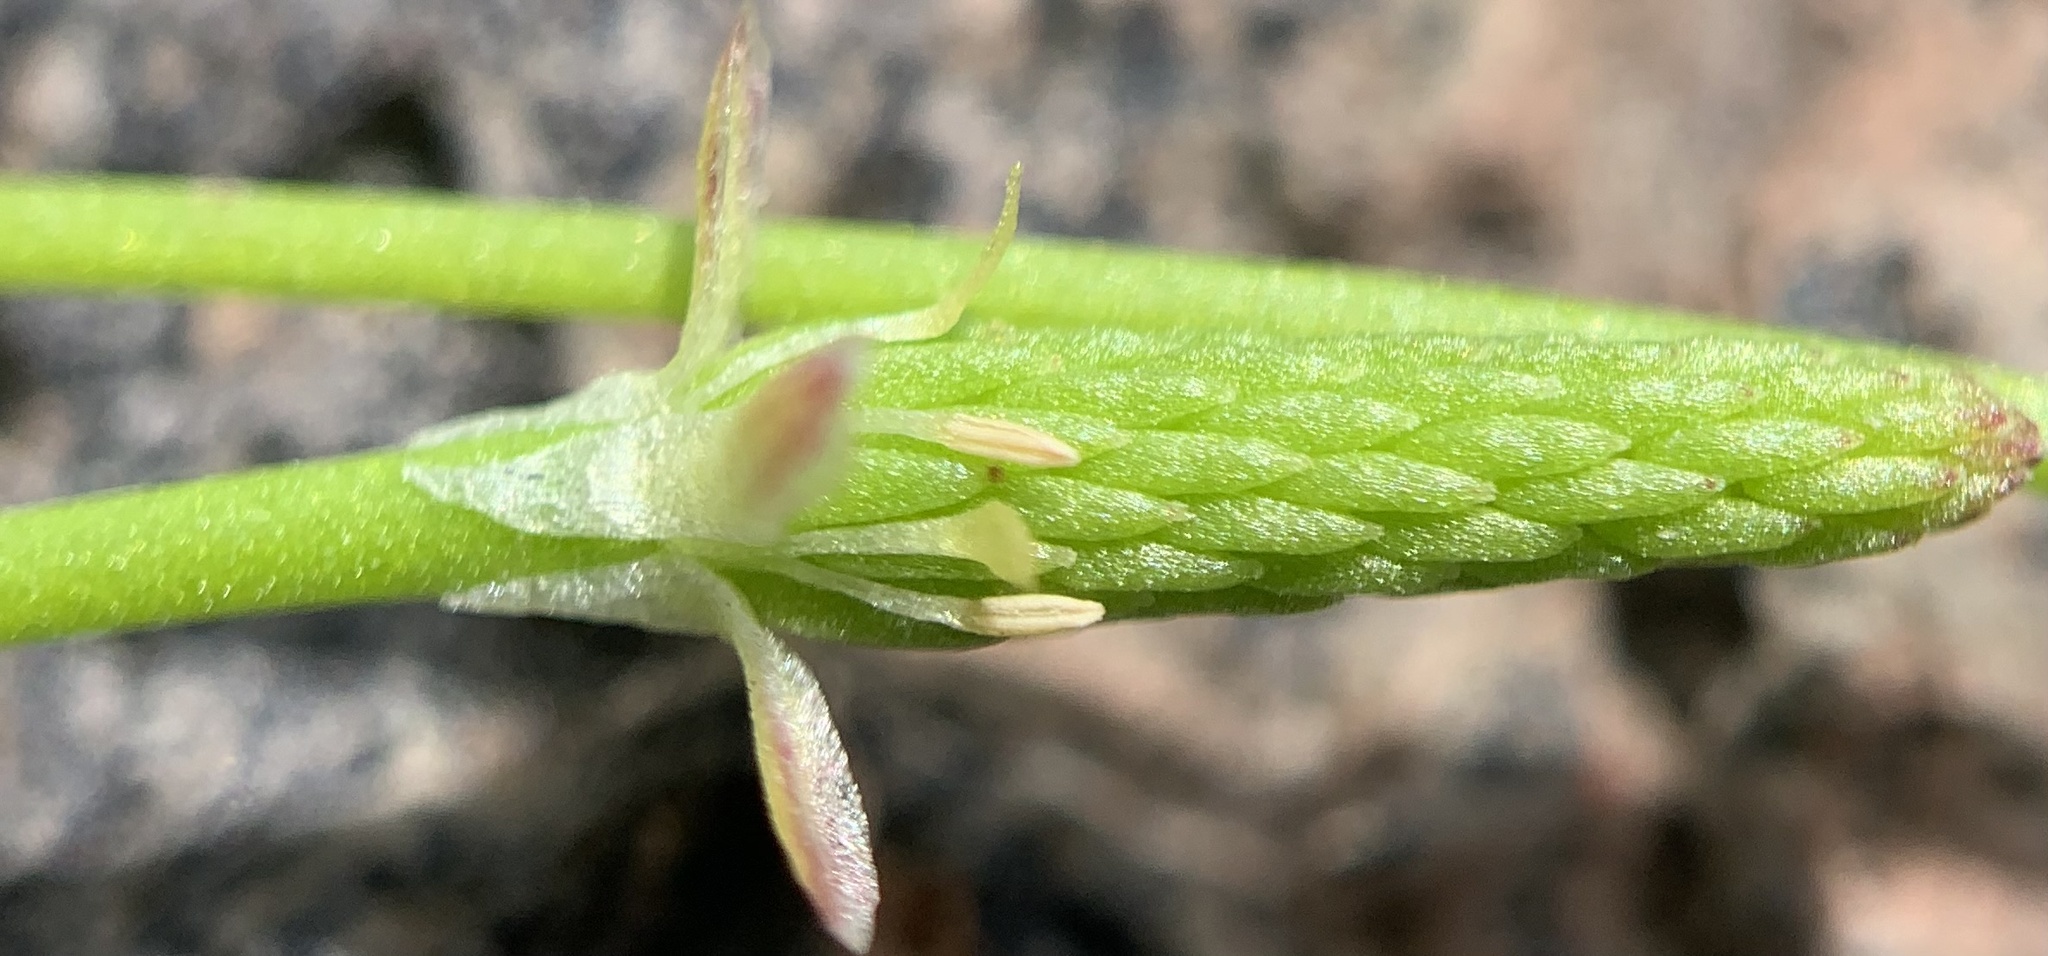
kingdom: Plantae
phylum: Tracheophyta
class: Magnoliopsida
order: Ranunculales
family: Ranunculaceae
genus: Myosurus
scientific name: Myosurus minimus
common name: Mousetail
